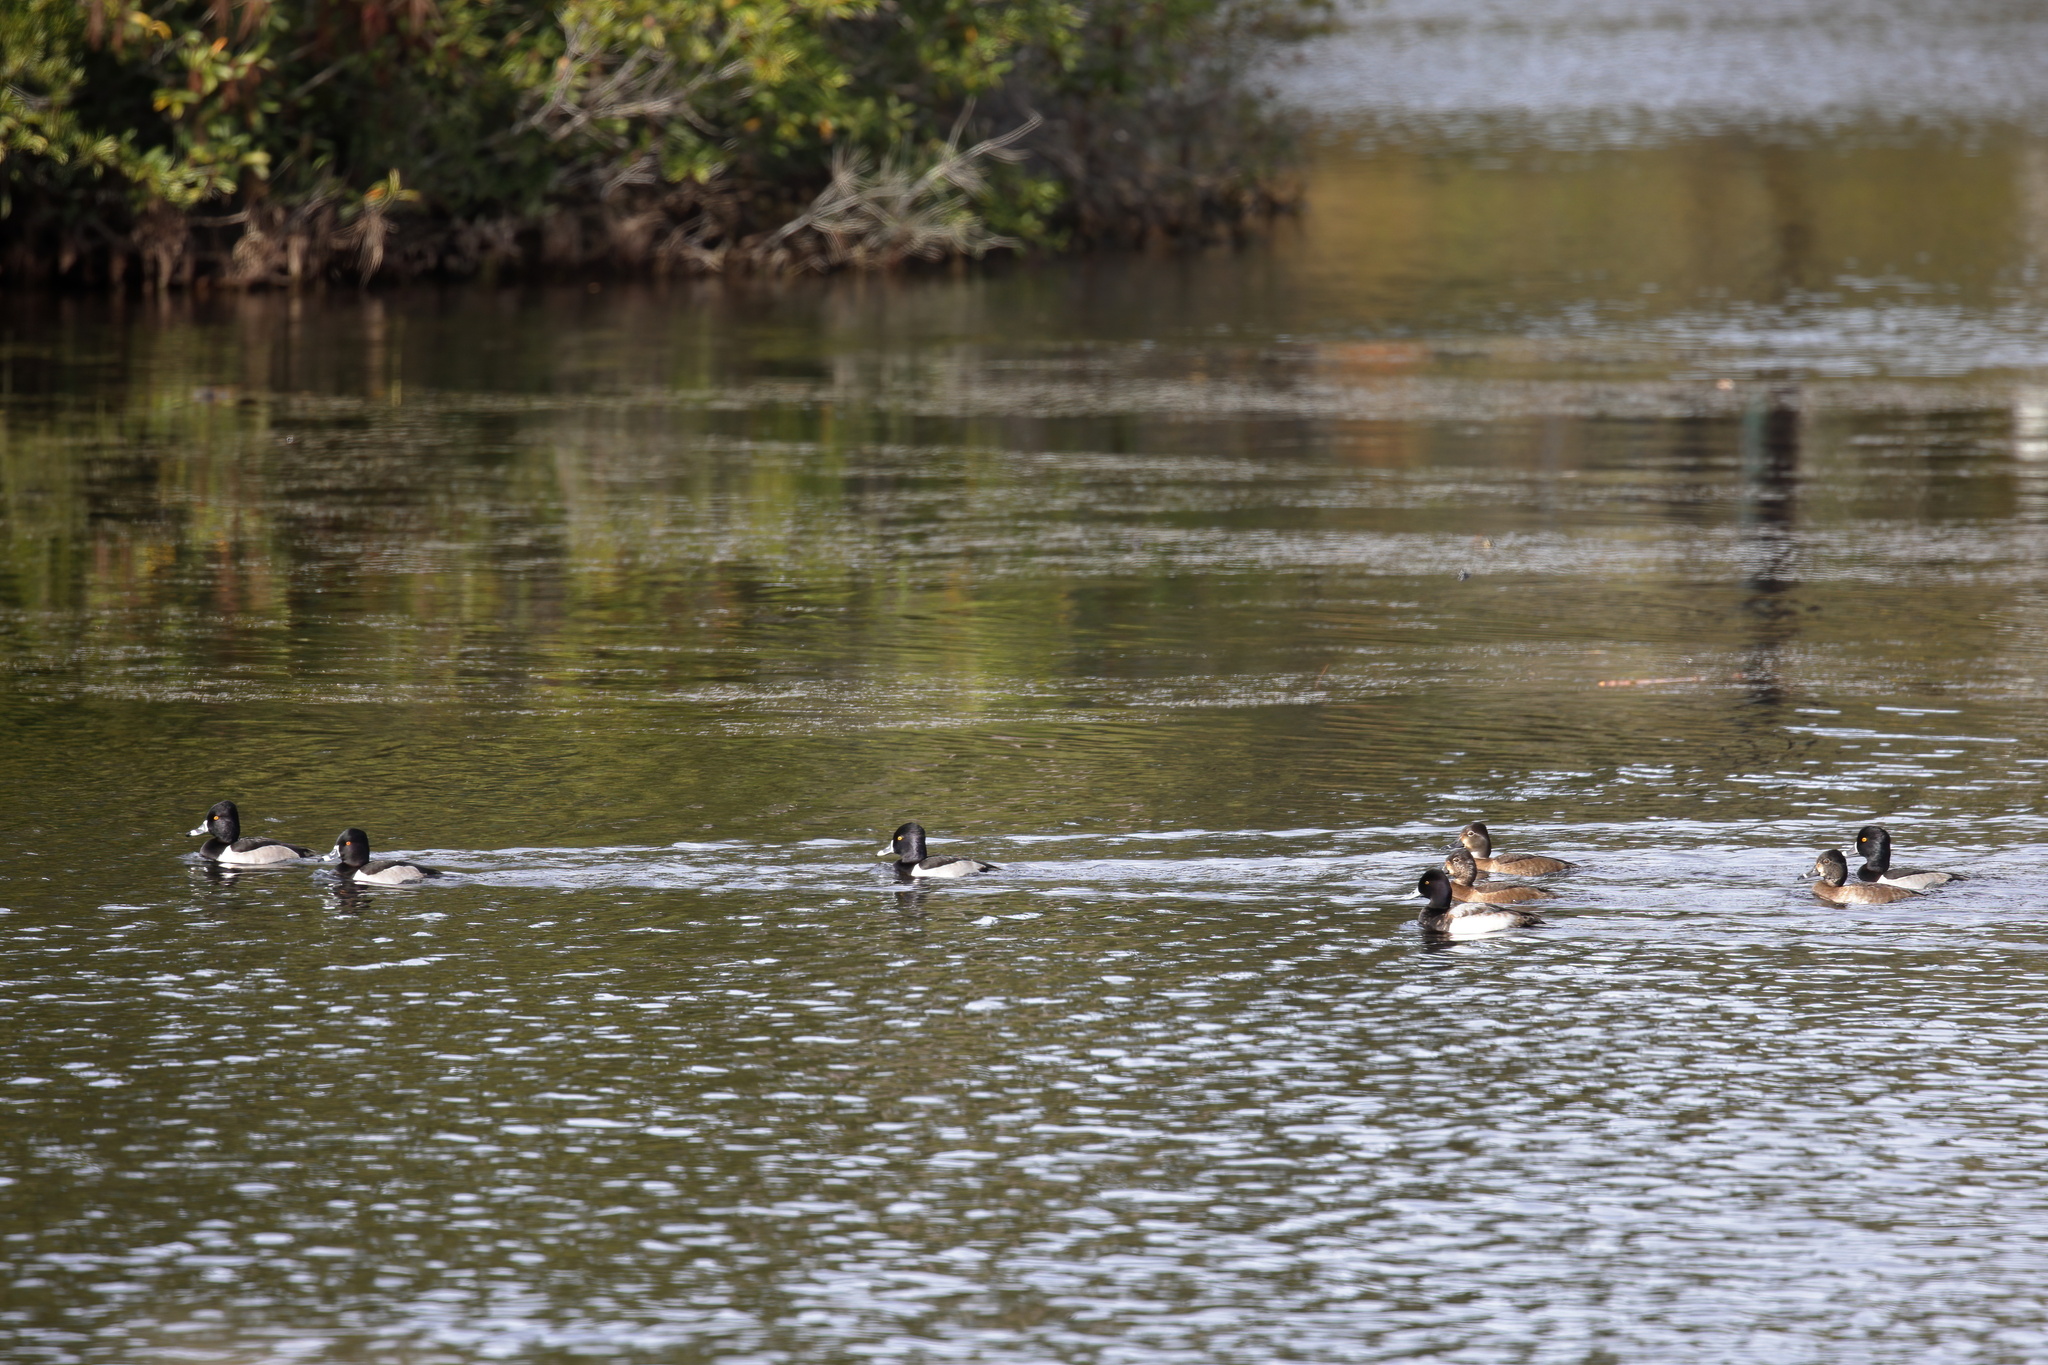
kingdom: Animalia
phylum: Chordata
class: Aves
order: Anseriformes
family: Anatidae
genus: Aythya
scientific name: Aythya collaris
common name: Ring-necked duck
